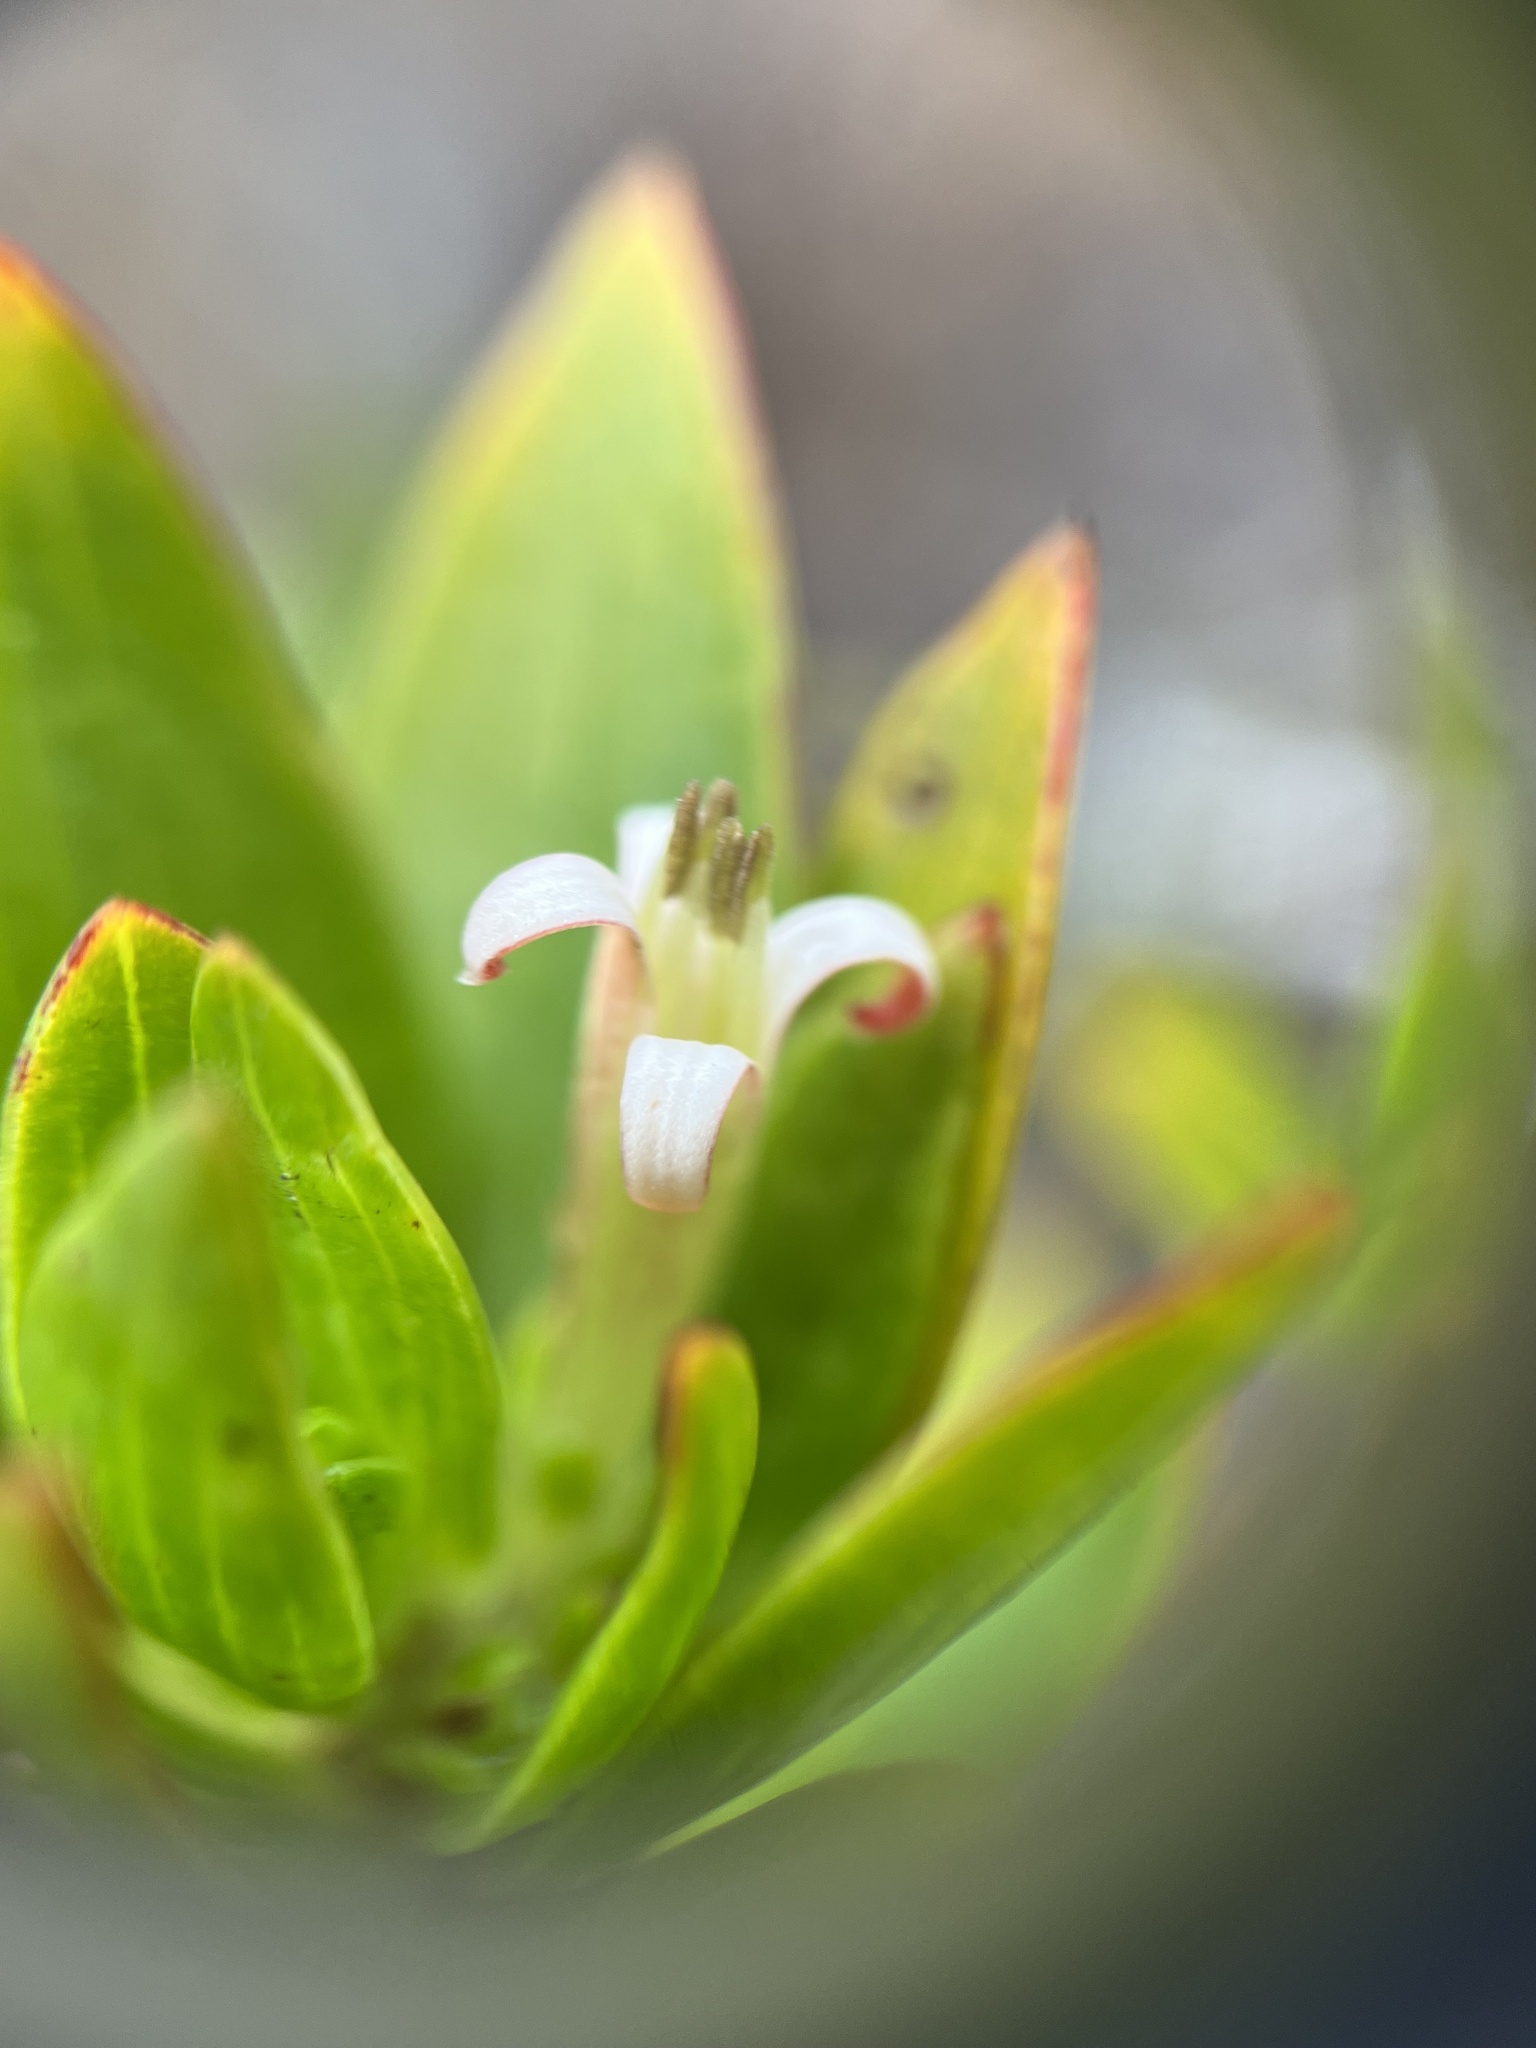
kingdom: Plantae
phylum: Tracheophyta
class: Magnoliopsida
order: Gentianales
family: Rubiaceae
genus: Ernodea
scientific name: Ernodea littoralis
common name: Beach creeper
